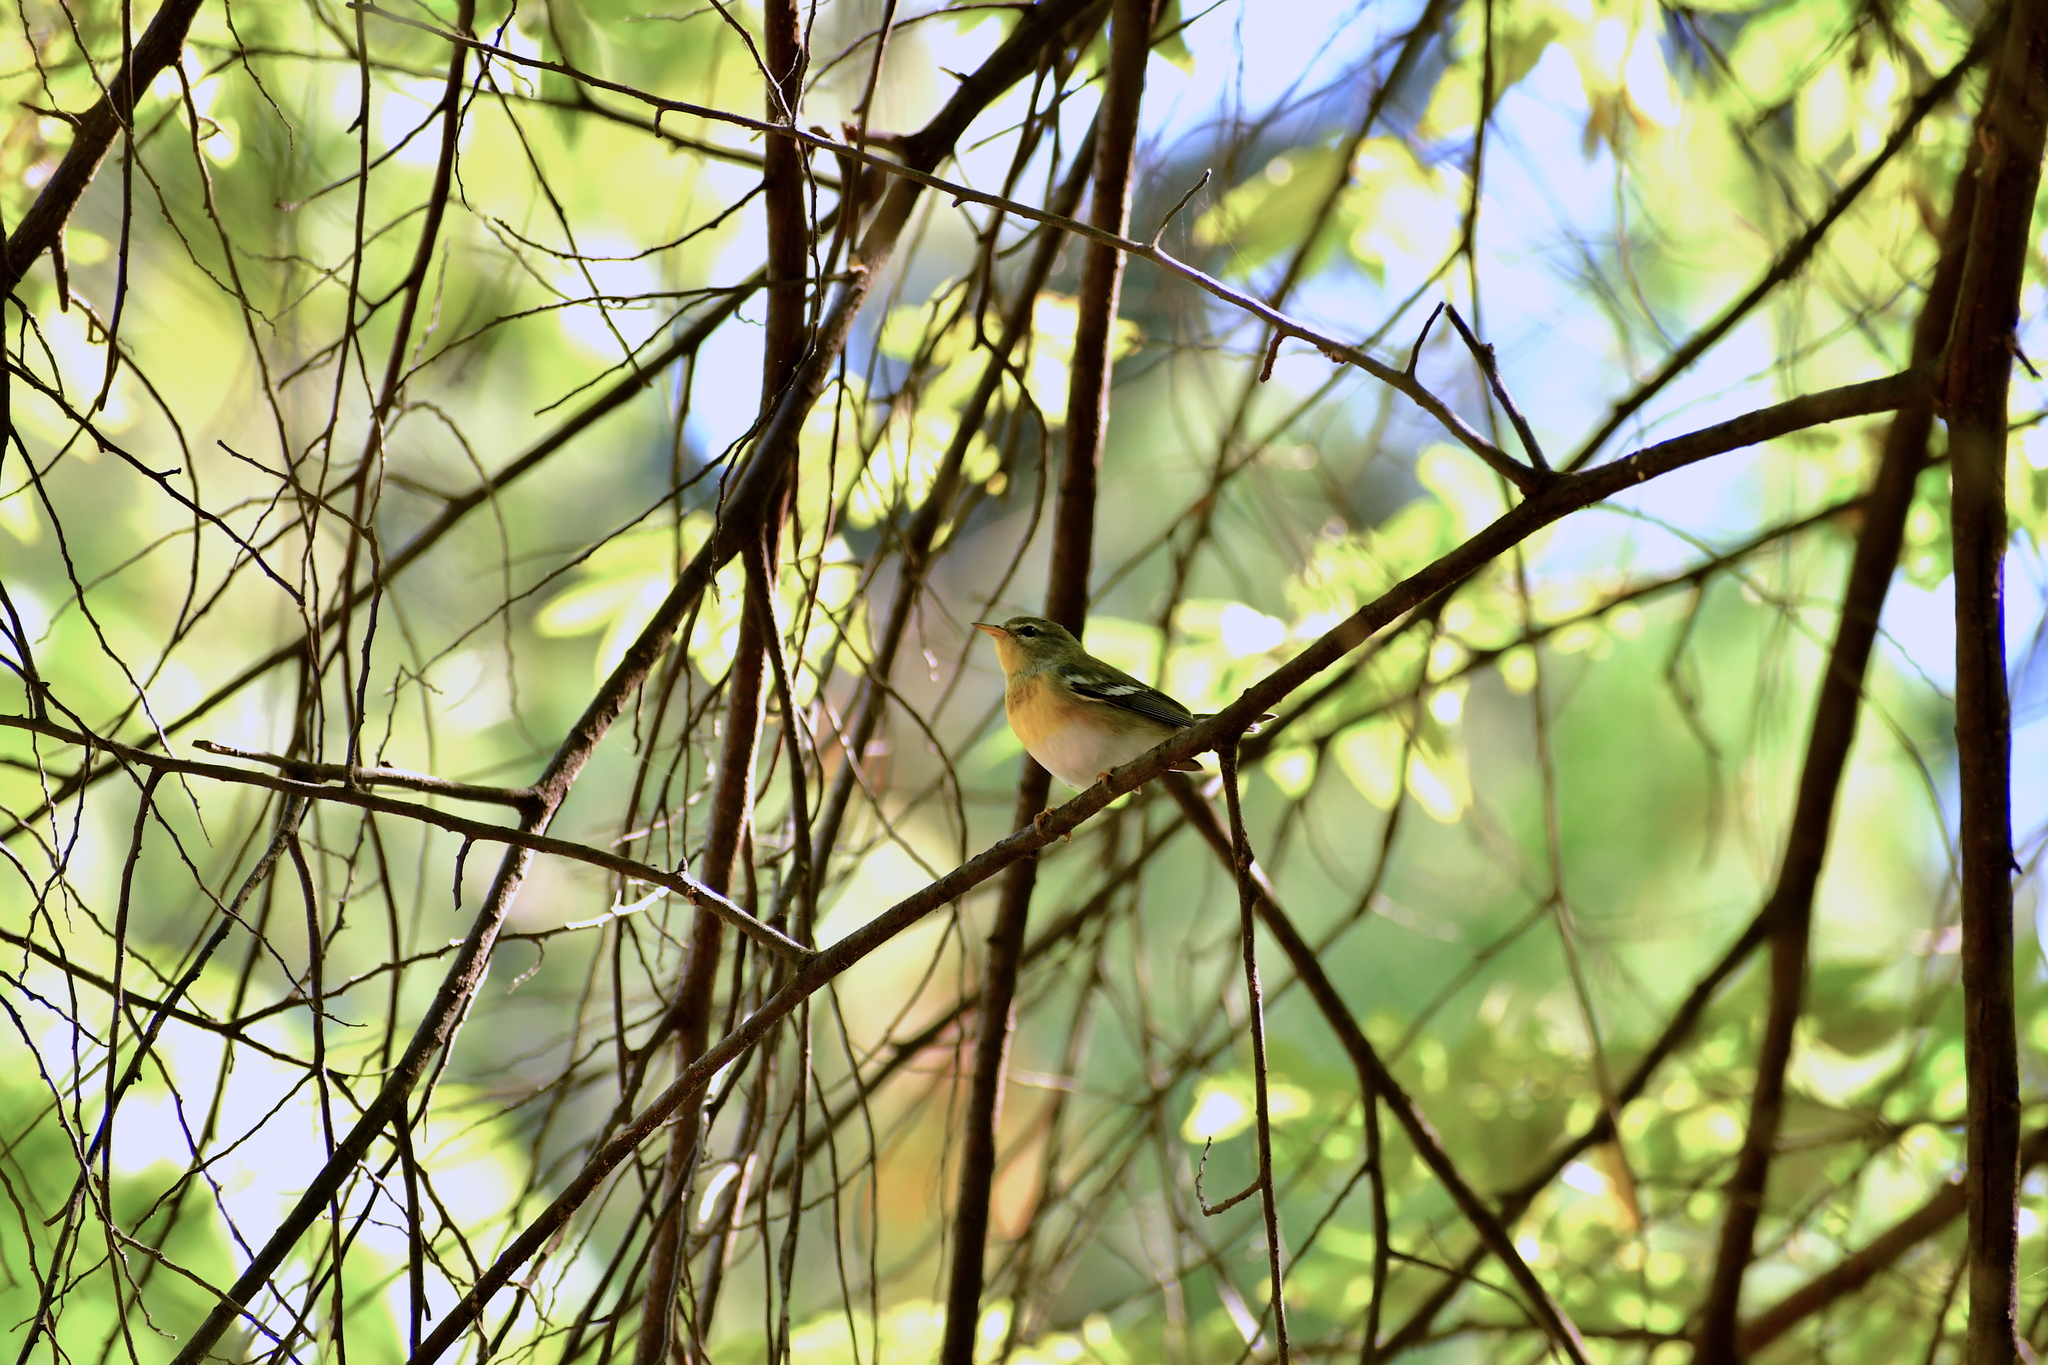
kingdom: Animalia
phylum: Chordata
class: Aves
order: Passeriformes
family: Parulidae
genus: Setophaga
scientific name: Setophaga americana
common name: Northern parula
